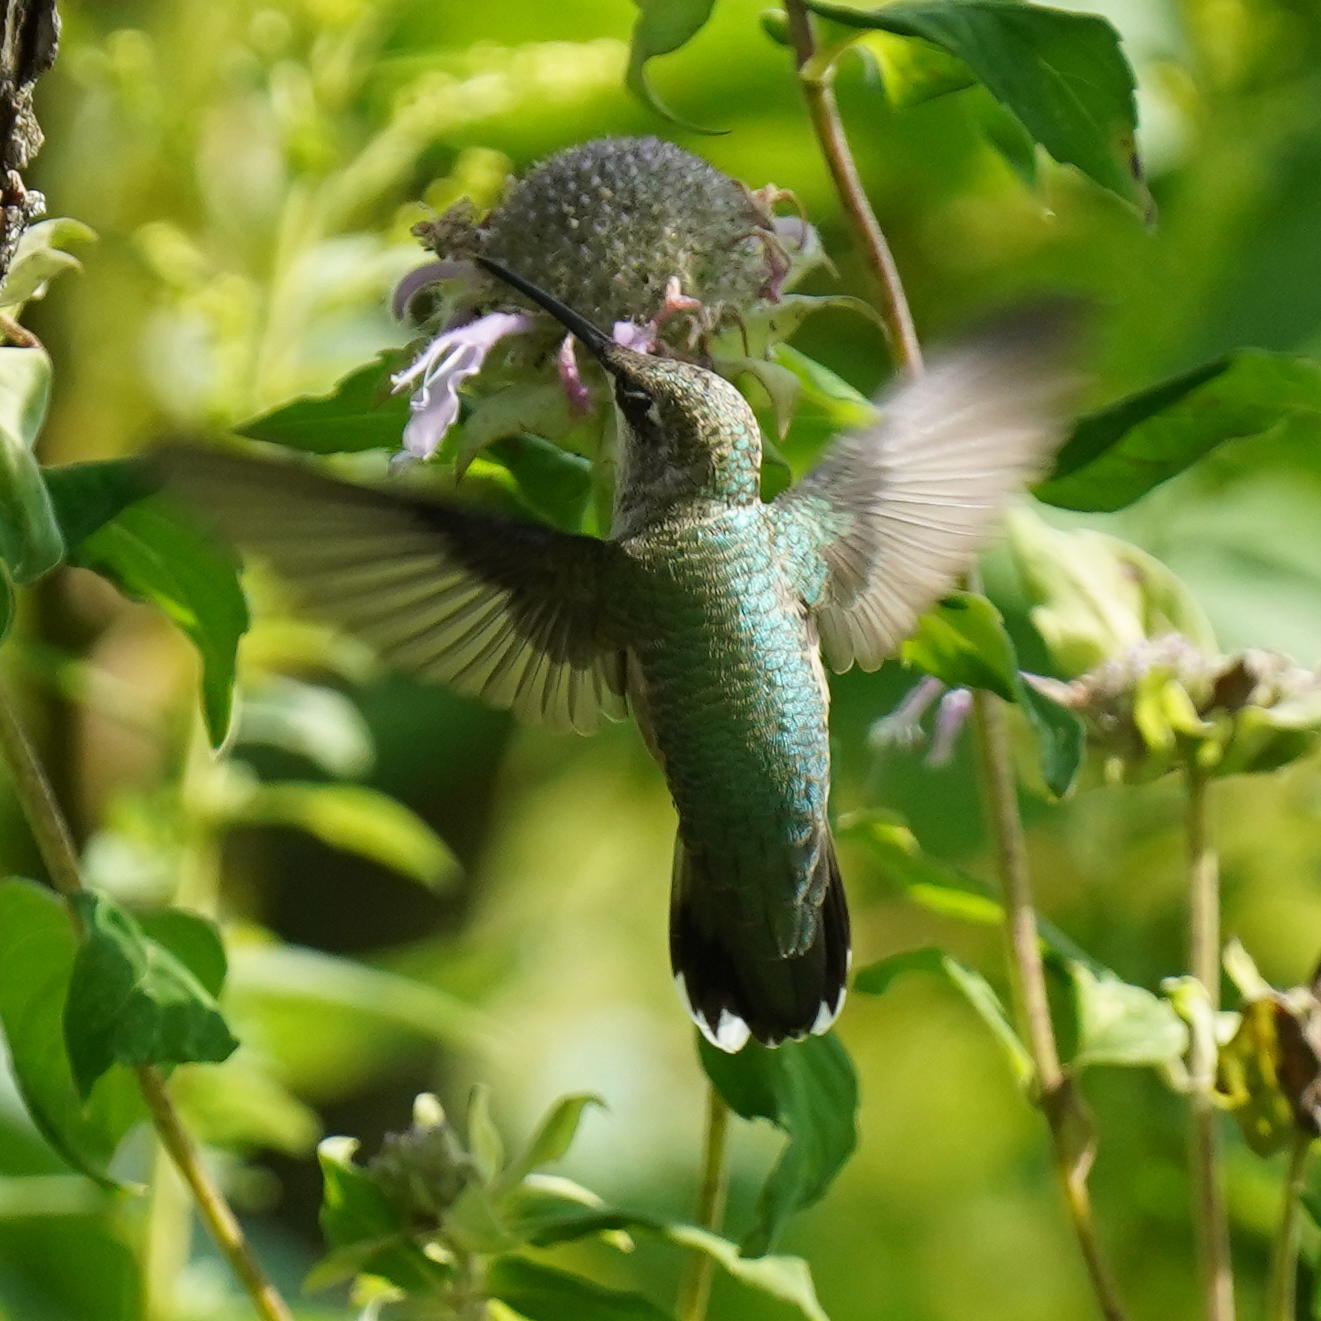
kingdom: Animalia
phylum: Chordata
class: Aves
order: Apodiformes
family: Trochilidae
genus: Archilochus
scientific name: Archilochus colubris
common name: Ruby-throated hummingbird
